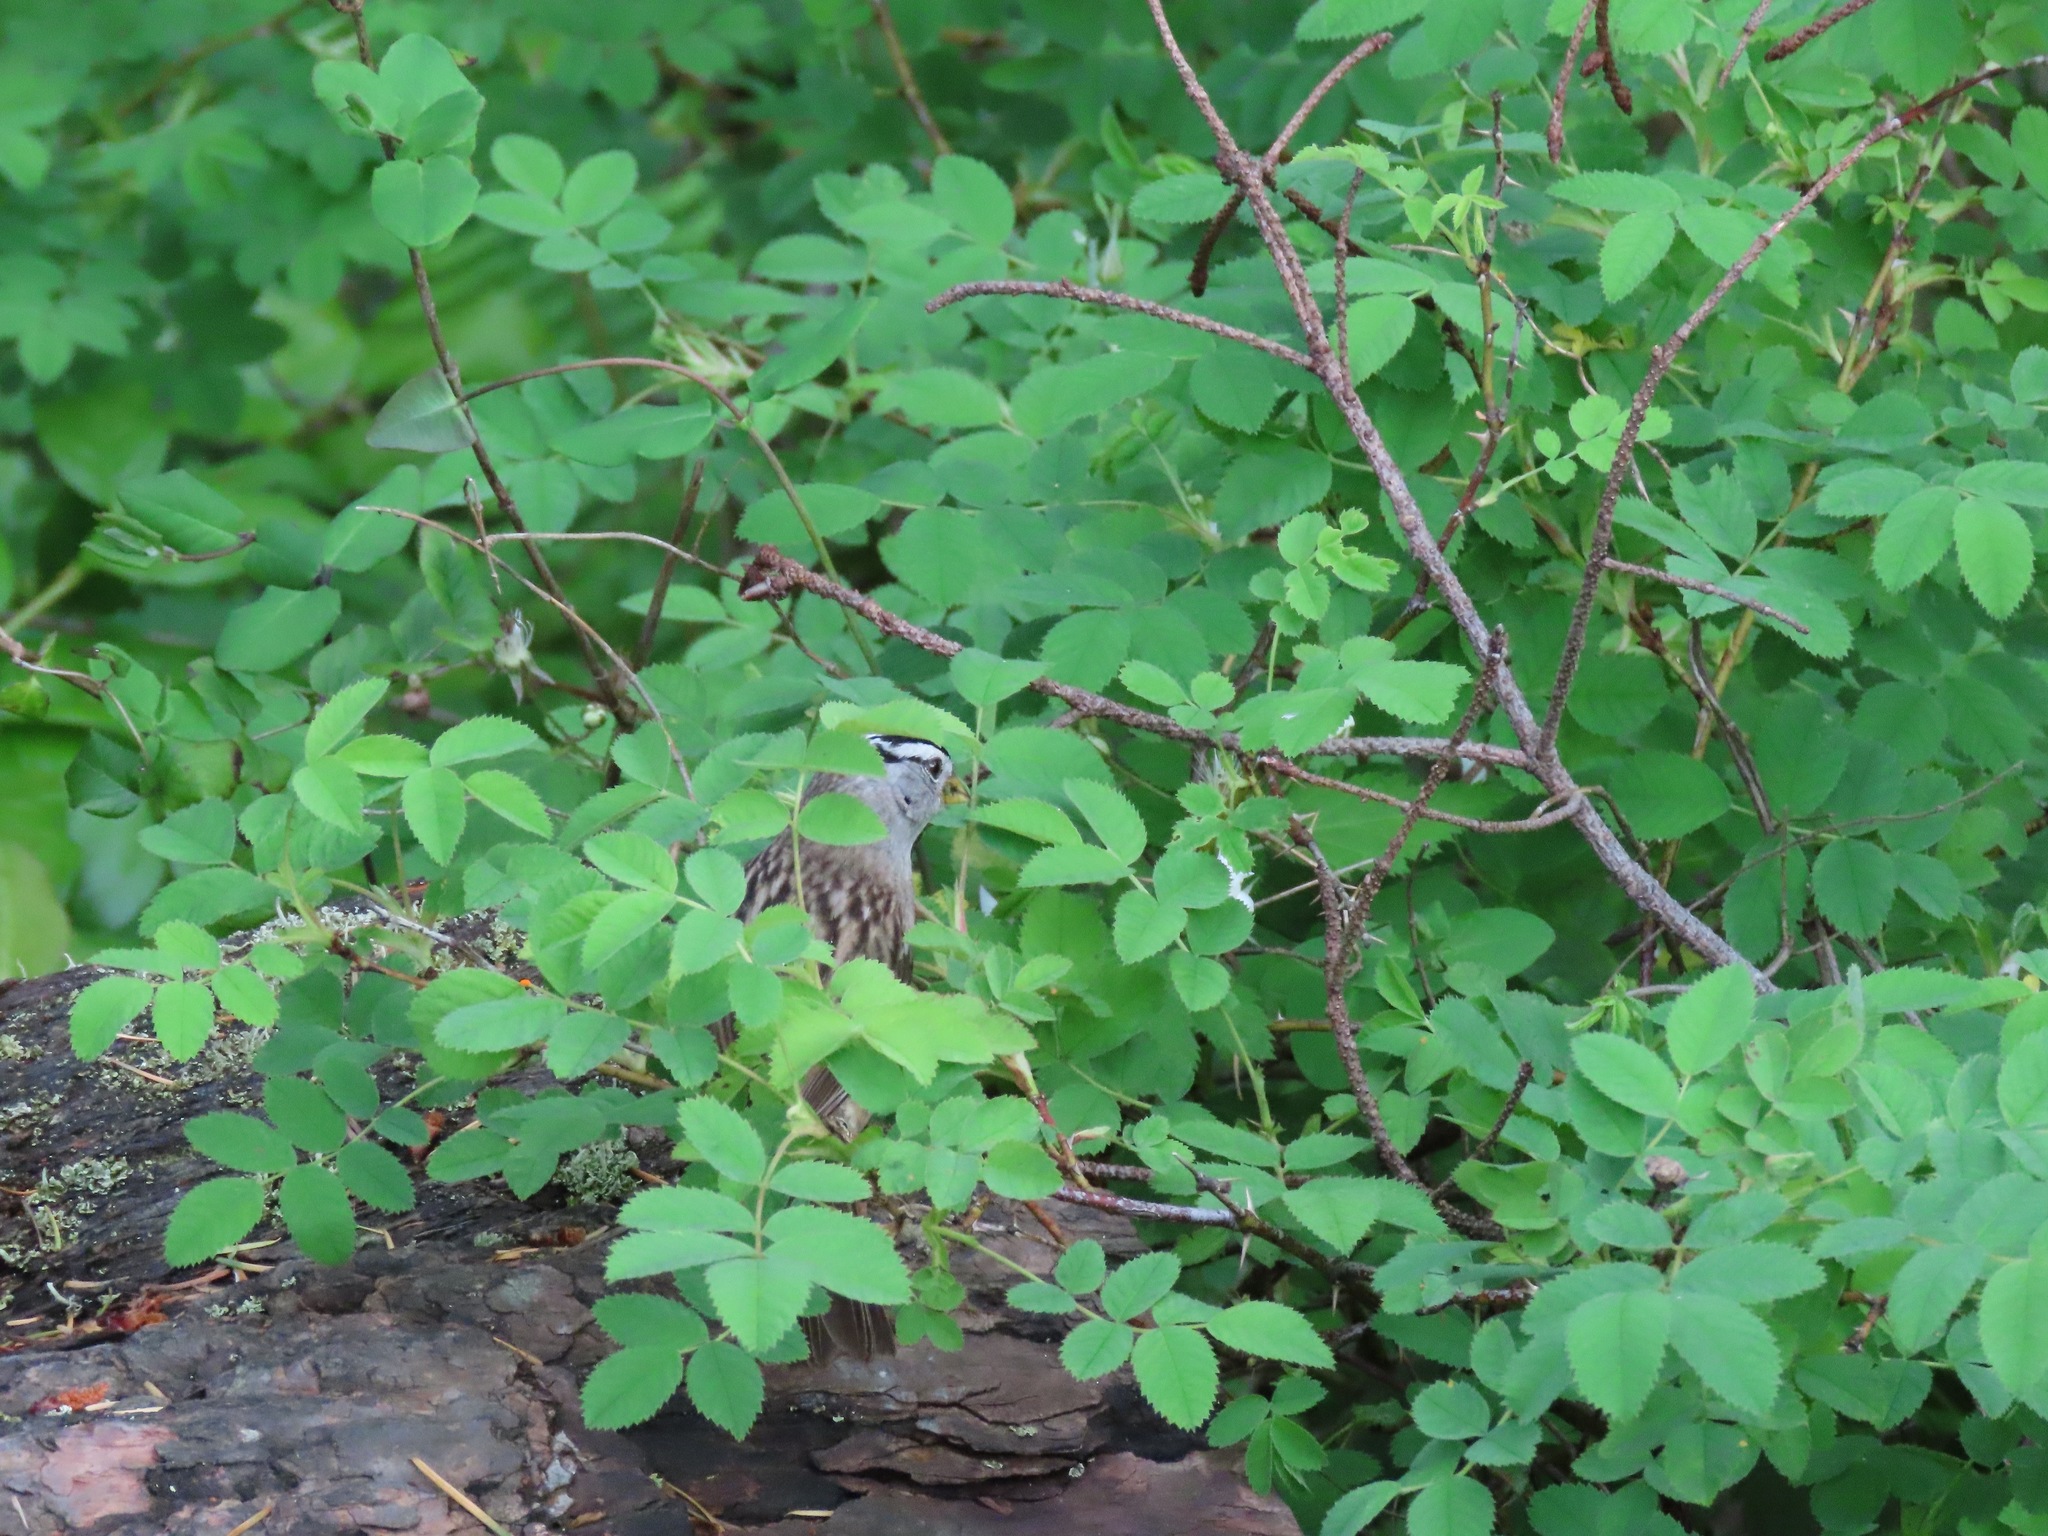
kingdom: Animalia
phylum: Chordata
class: Aves
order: Passeriformes
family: Passerellidae
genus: Zonotrichia
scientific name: Zonotrichia leucophrys
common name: White-crowned sparrow
